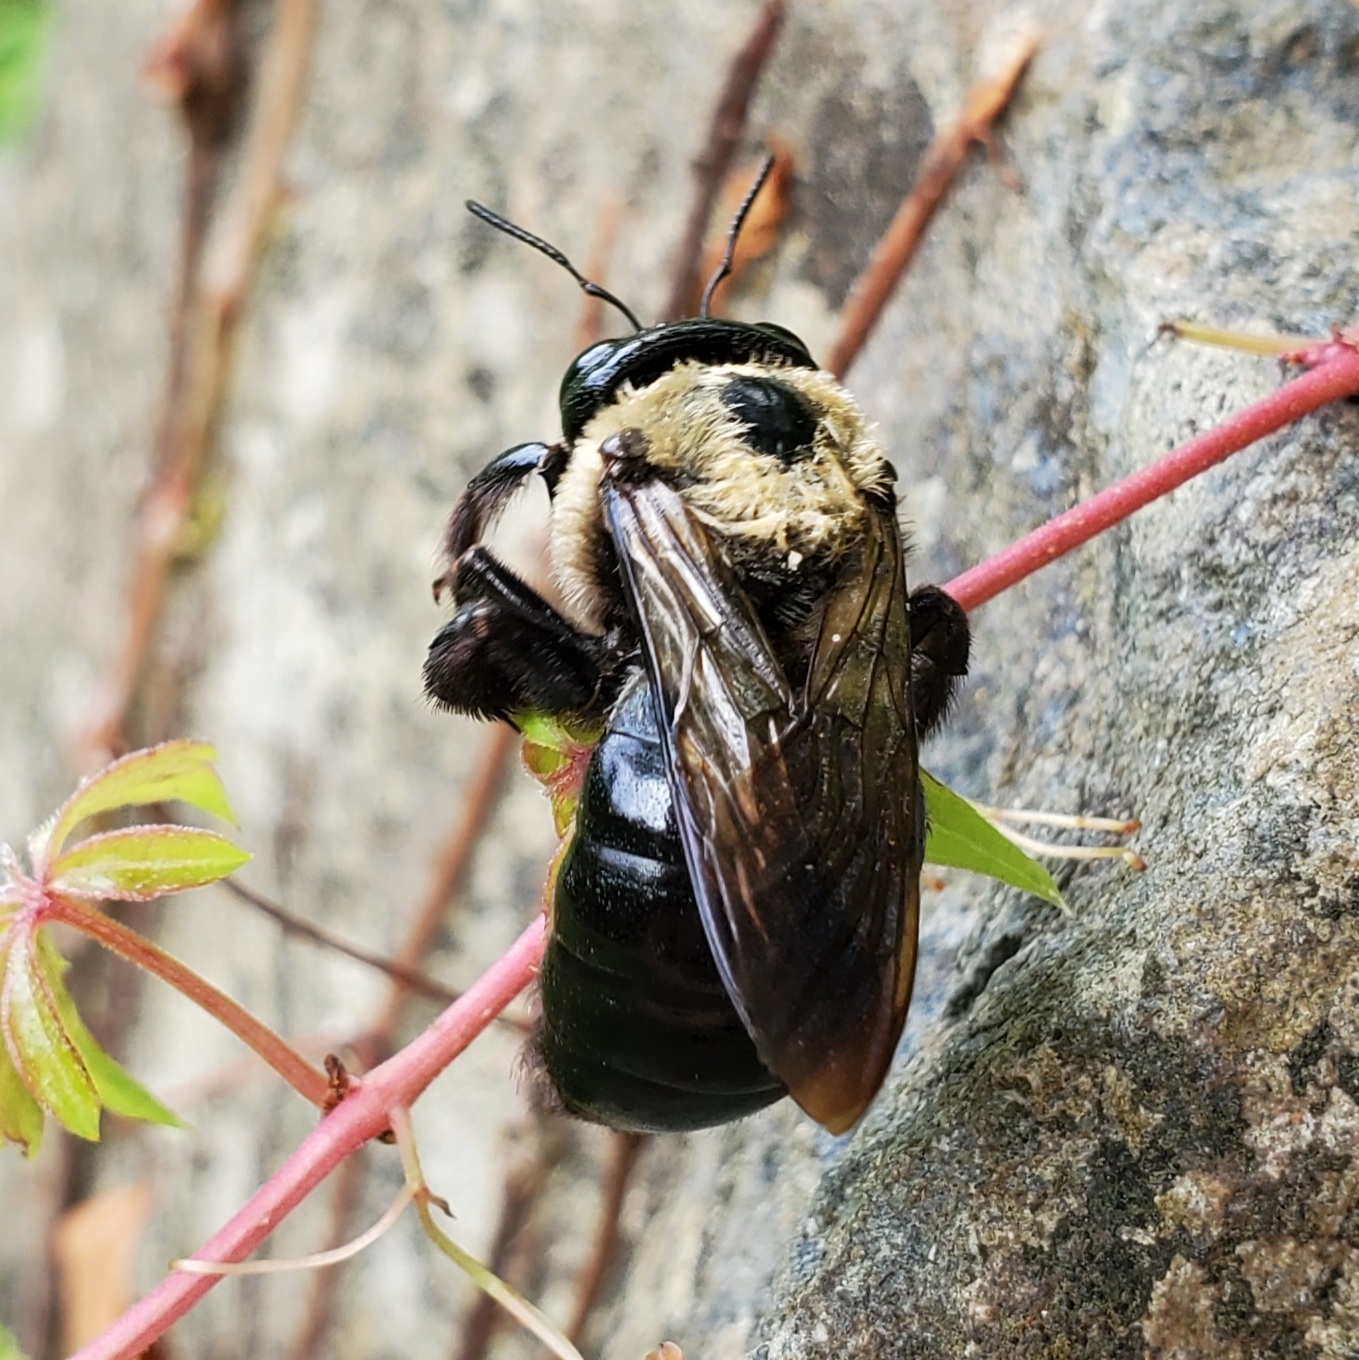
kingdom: Animalia
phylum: Arthropoda
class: Insecta
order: Hymenoptera
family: Apidae
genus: Xylocopa
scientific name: Xylocopa virginica
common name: Carpenter bee
